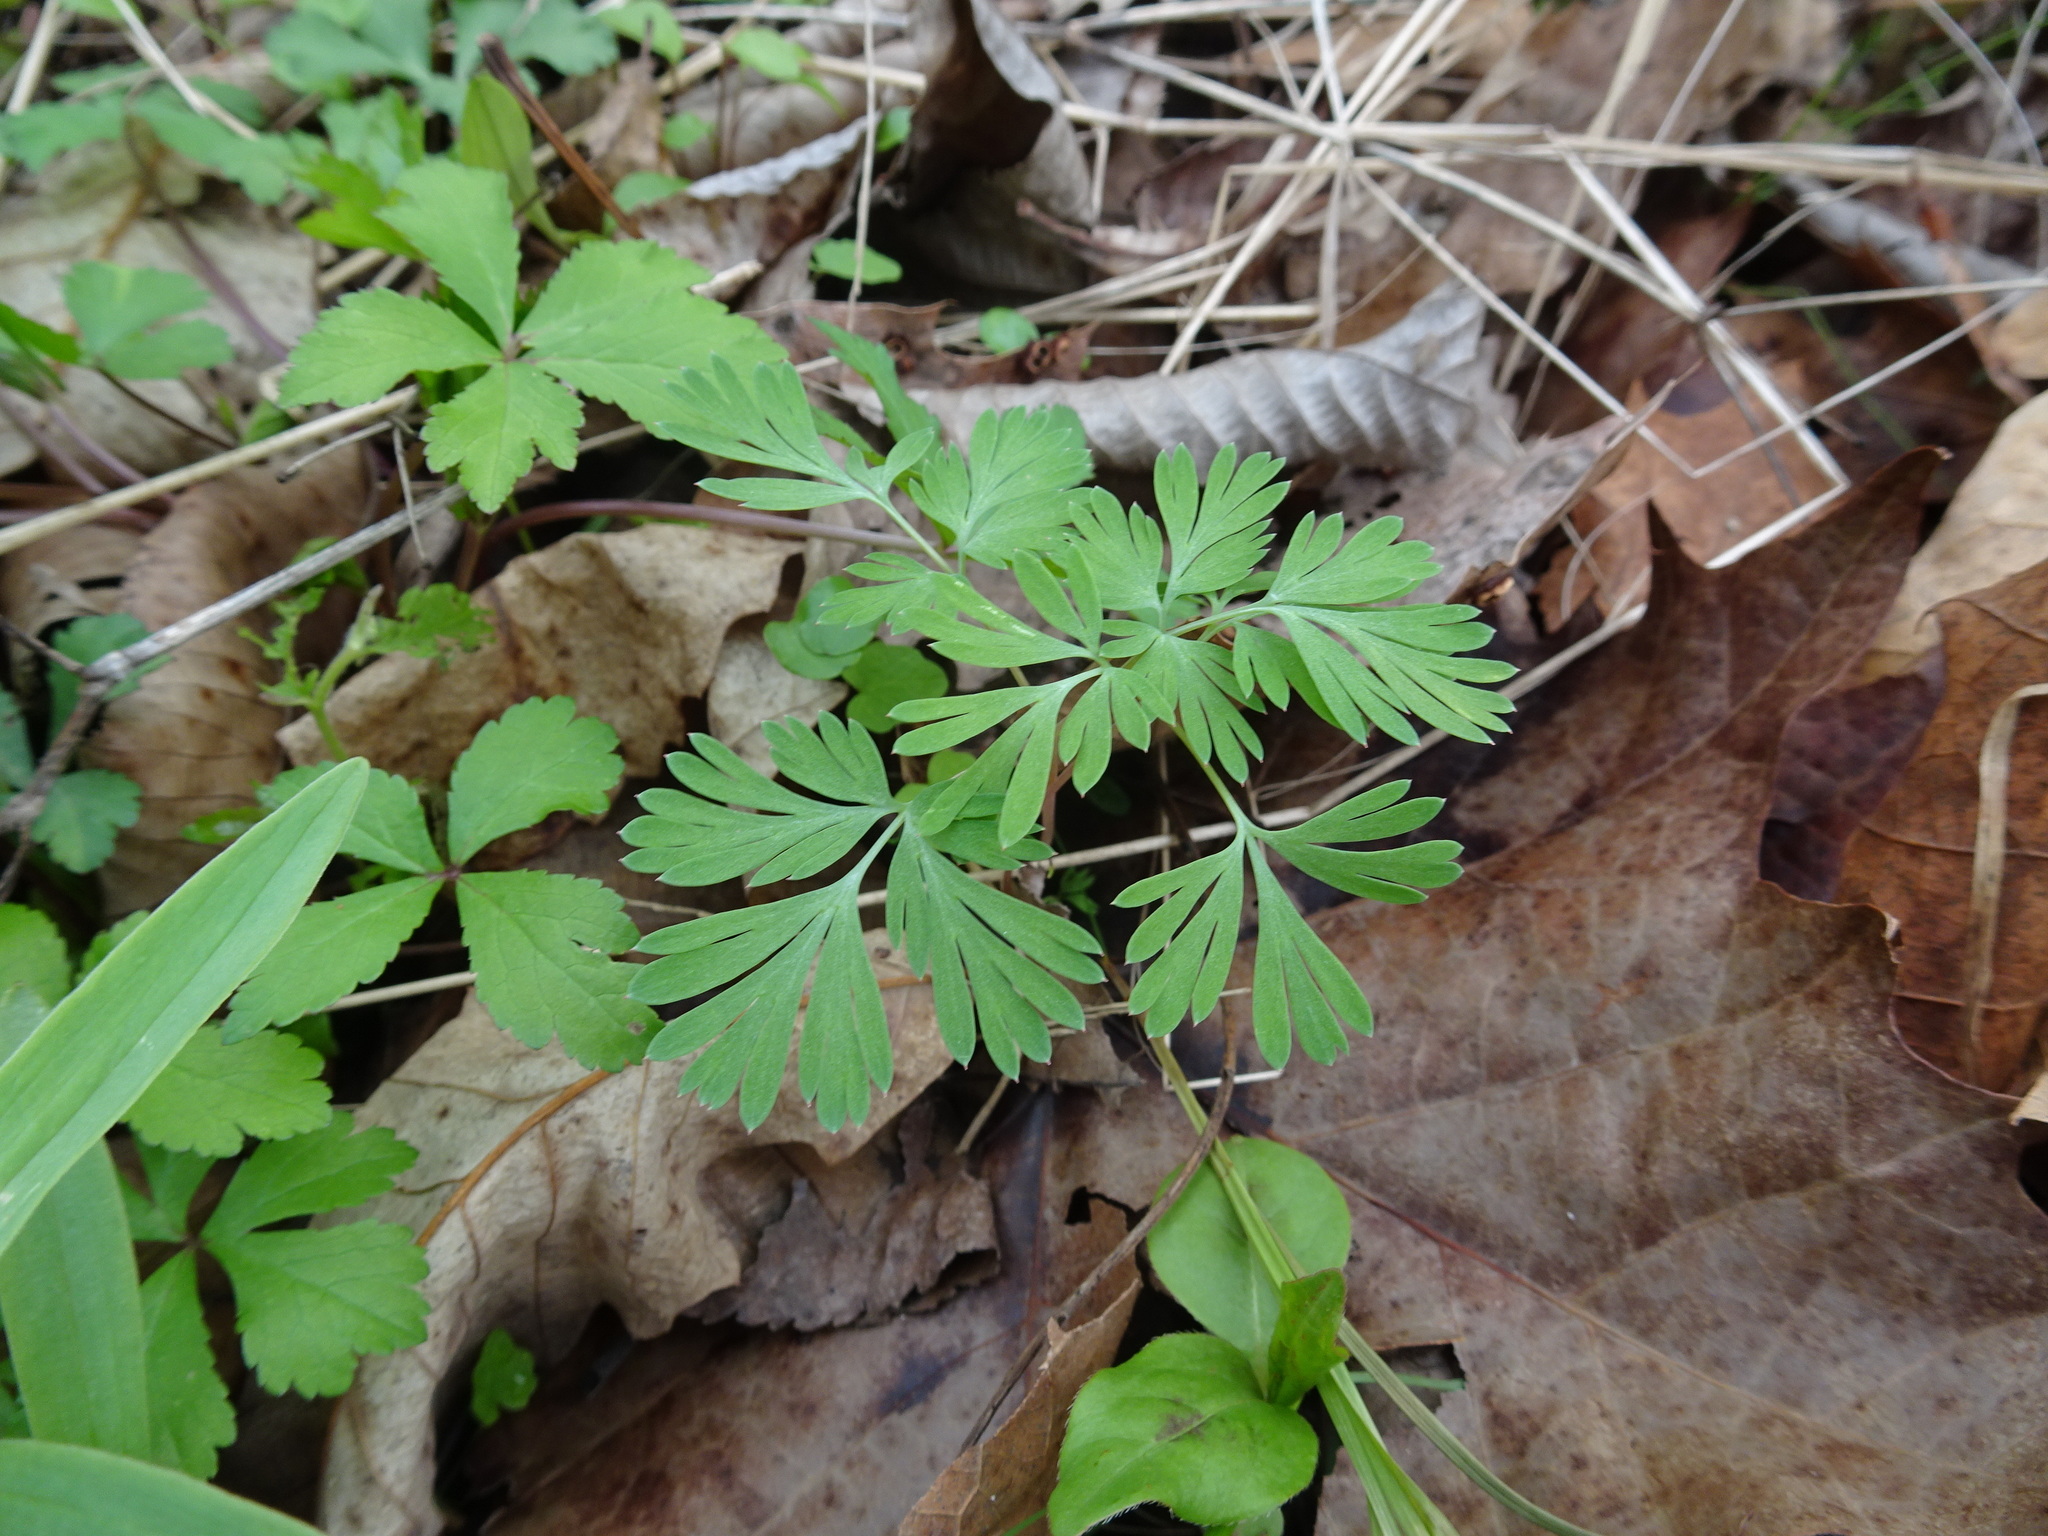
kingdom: Plantae
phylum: Tracheophyta
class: Magnoliopsida
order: Ranunculales
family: Papaveraceae
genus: Dicentra
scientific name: Dicentra cucullaria
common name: Dutchman's breeches
